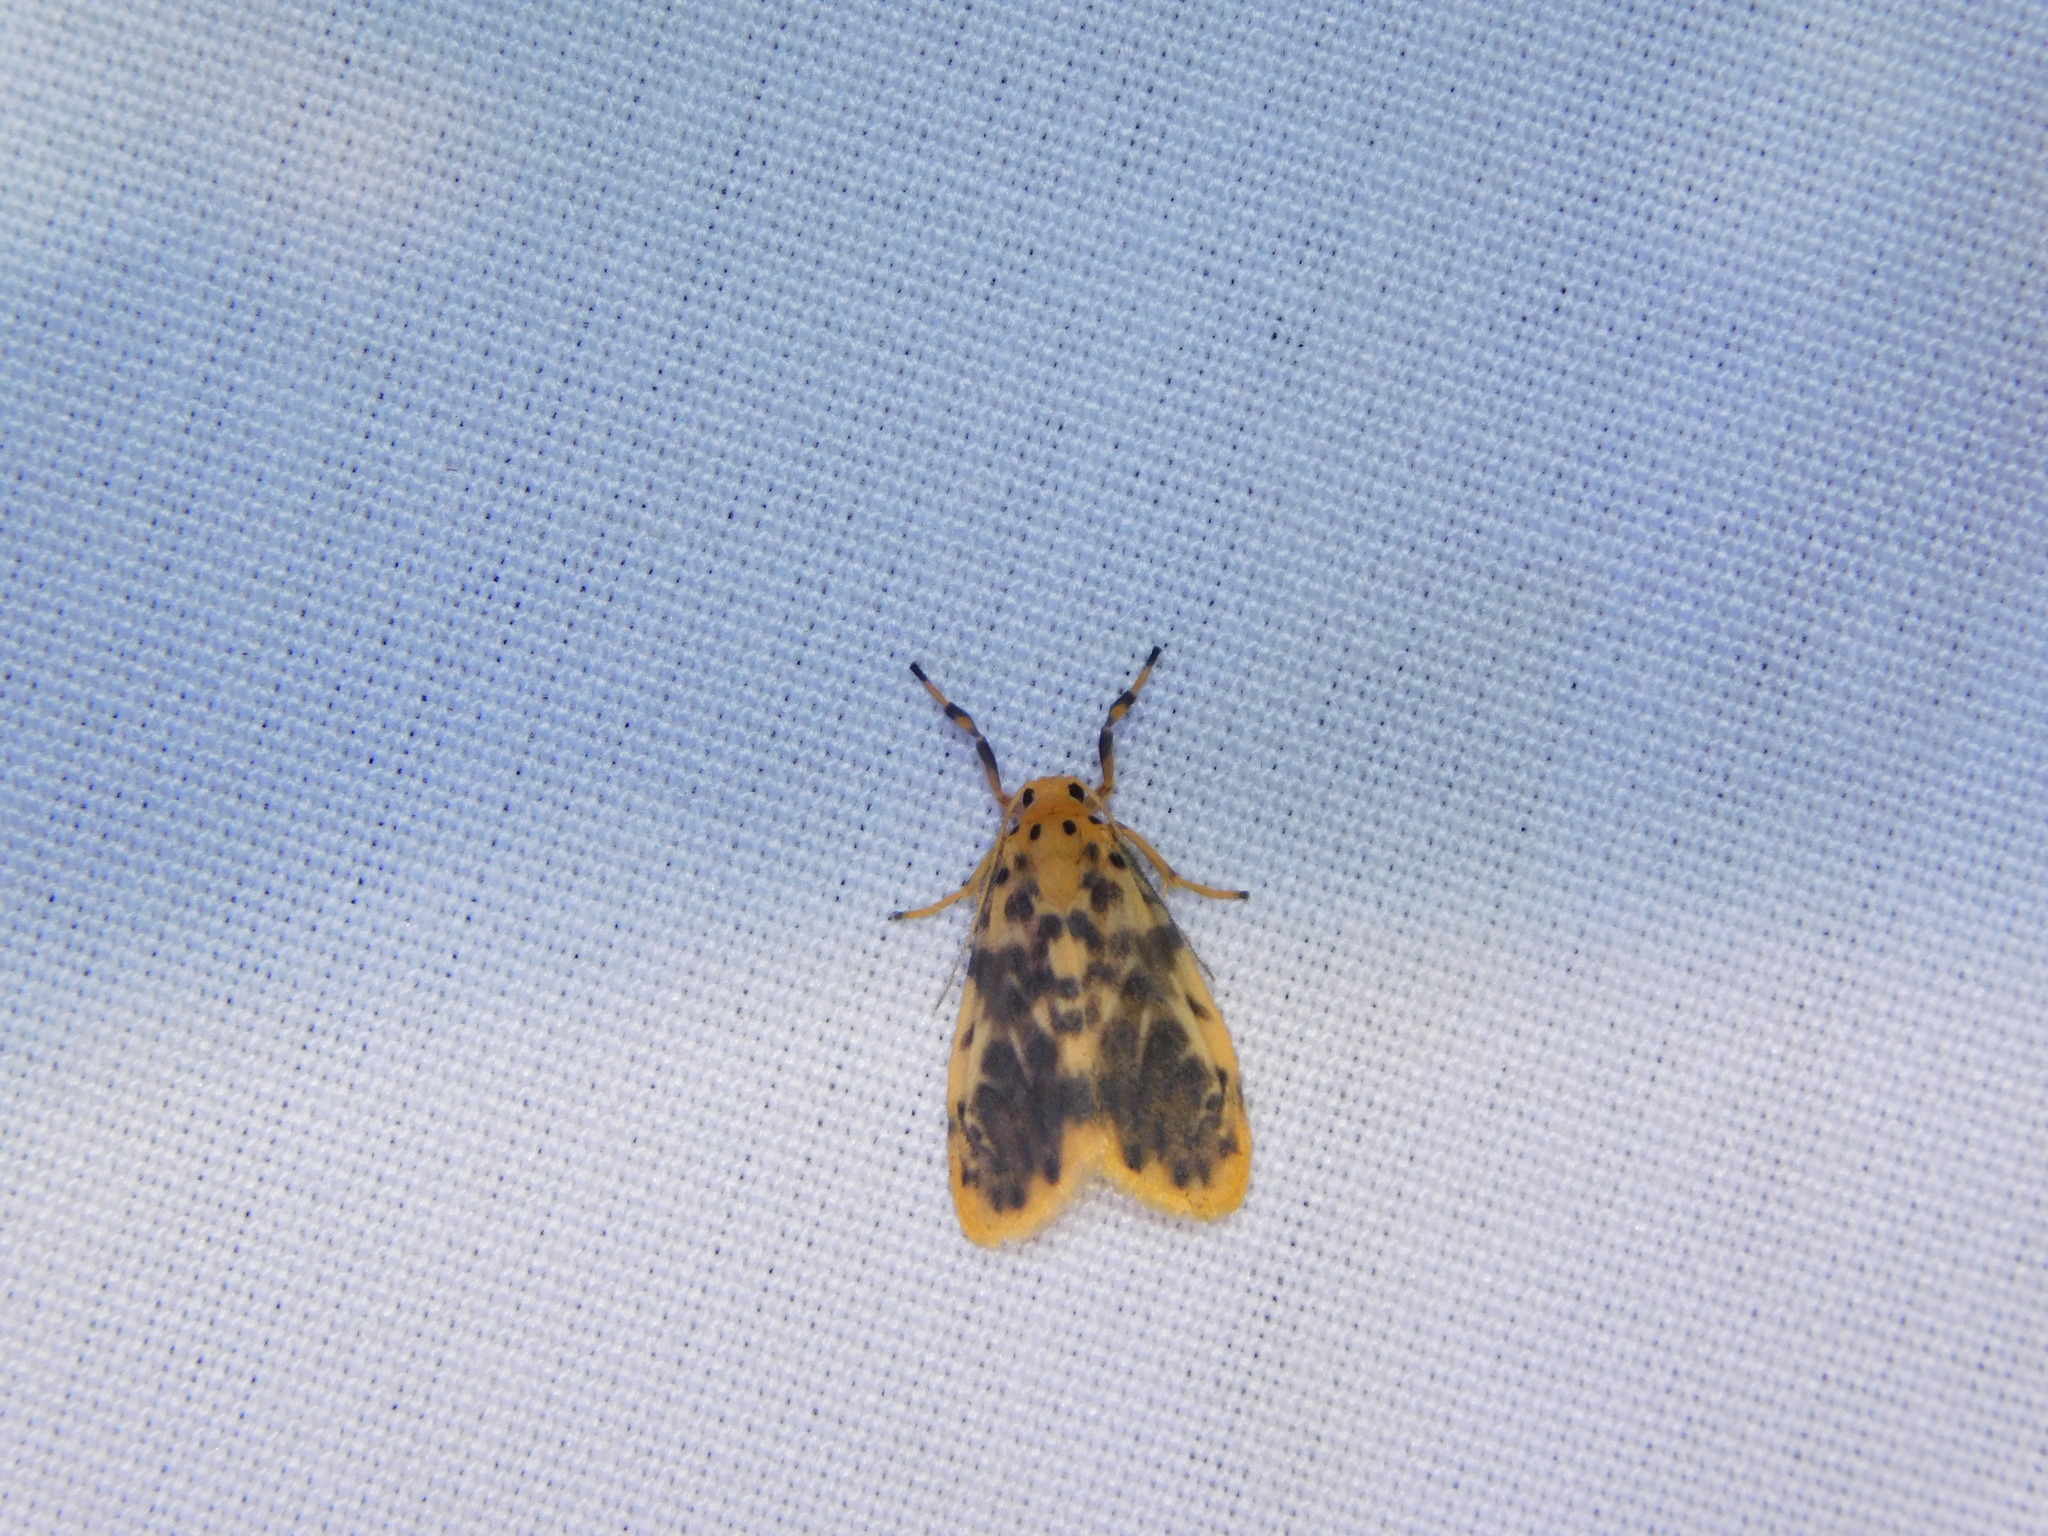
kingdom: Animalia
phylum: Arthropoda
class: Insecta
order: Lepidoptera
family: Erebidae
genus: Miltochrista
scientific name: Miltochrista semifascia
